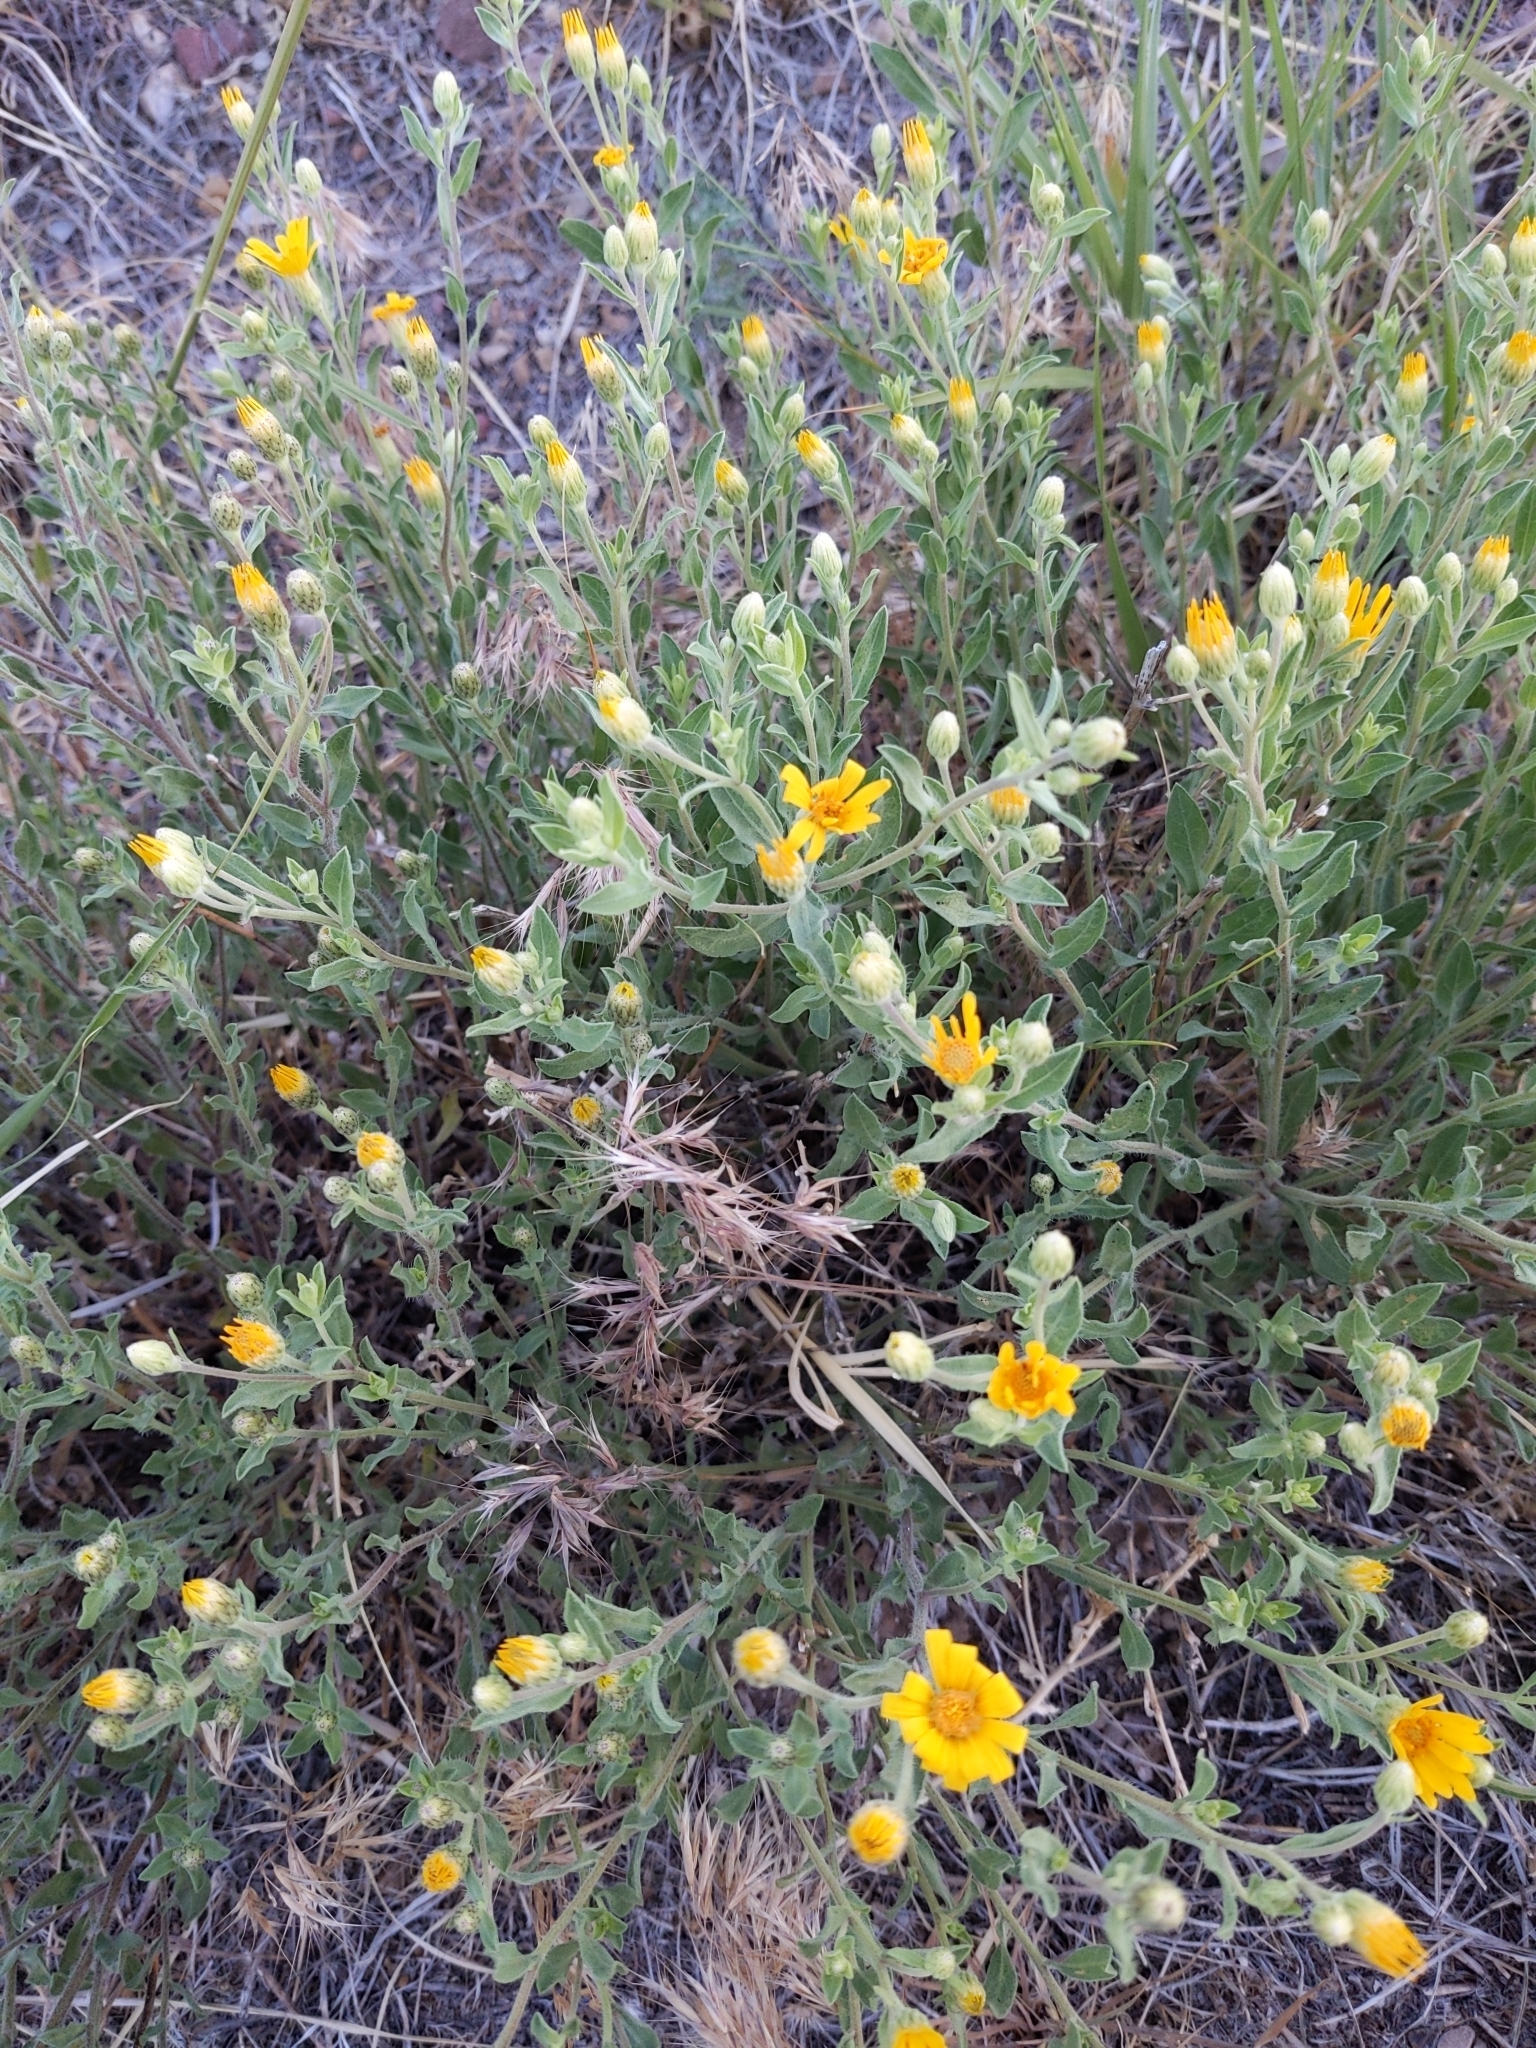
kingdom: Plantae
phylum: Tracheophyta
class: Magnoliopsida
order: Asterales
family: Asteraceae
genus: Heterotheca
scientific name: Heterotheca pedunculata
